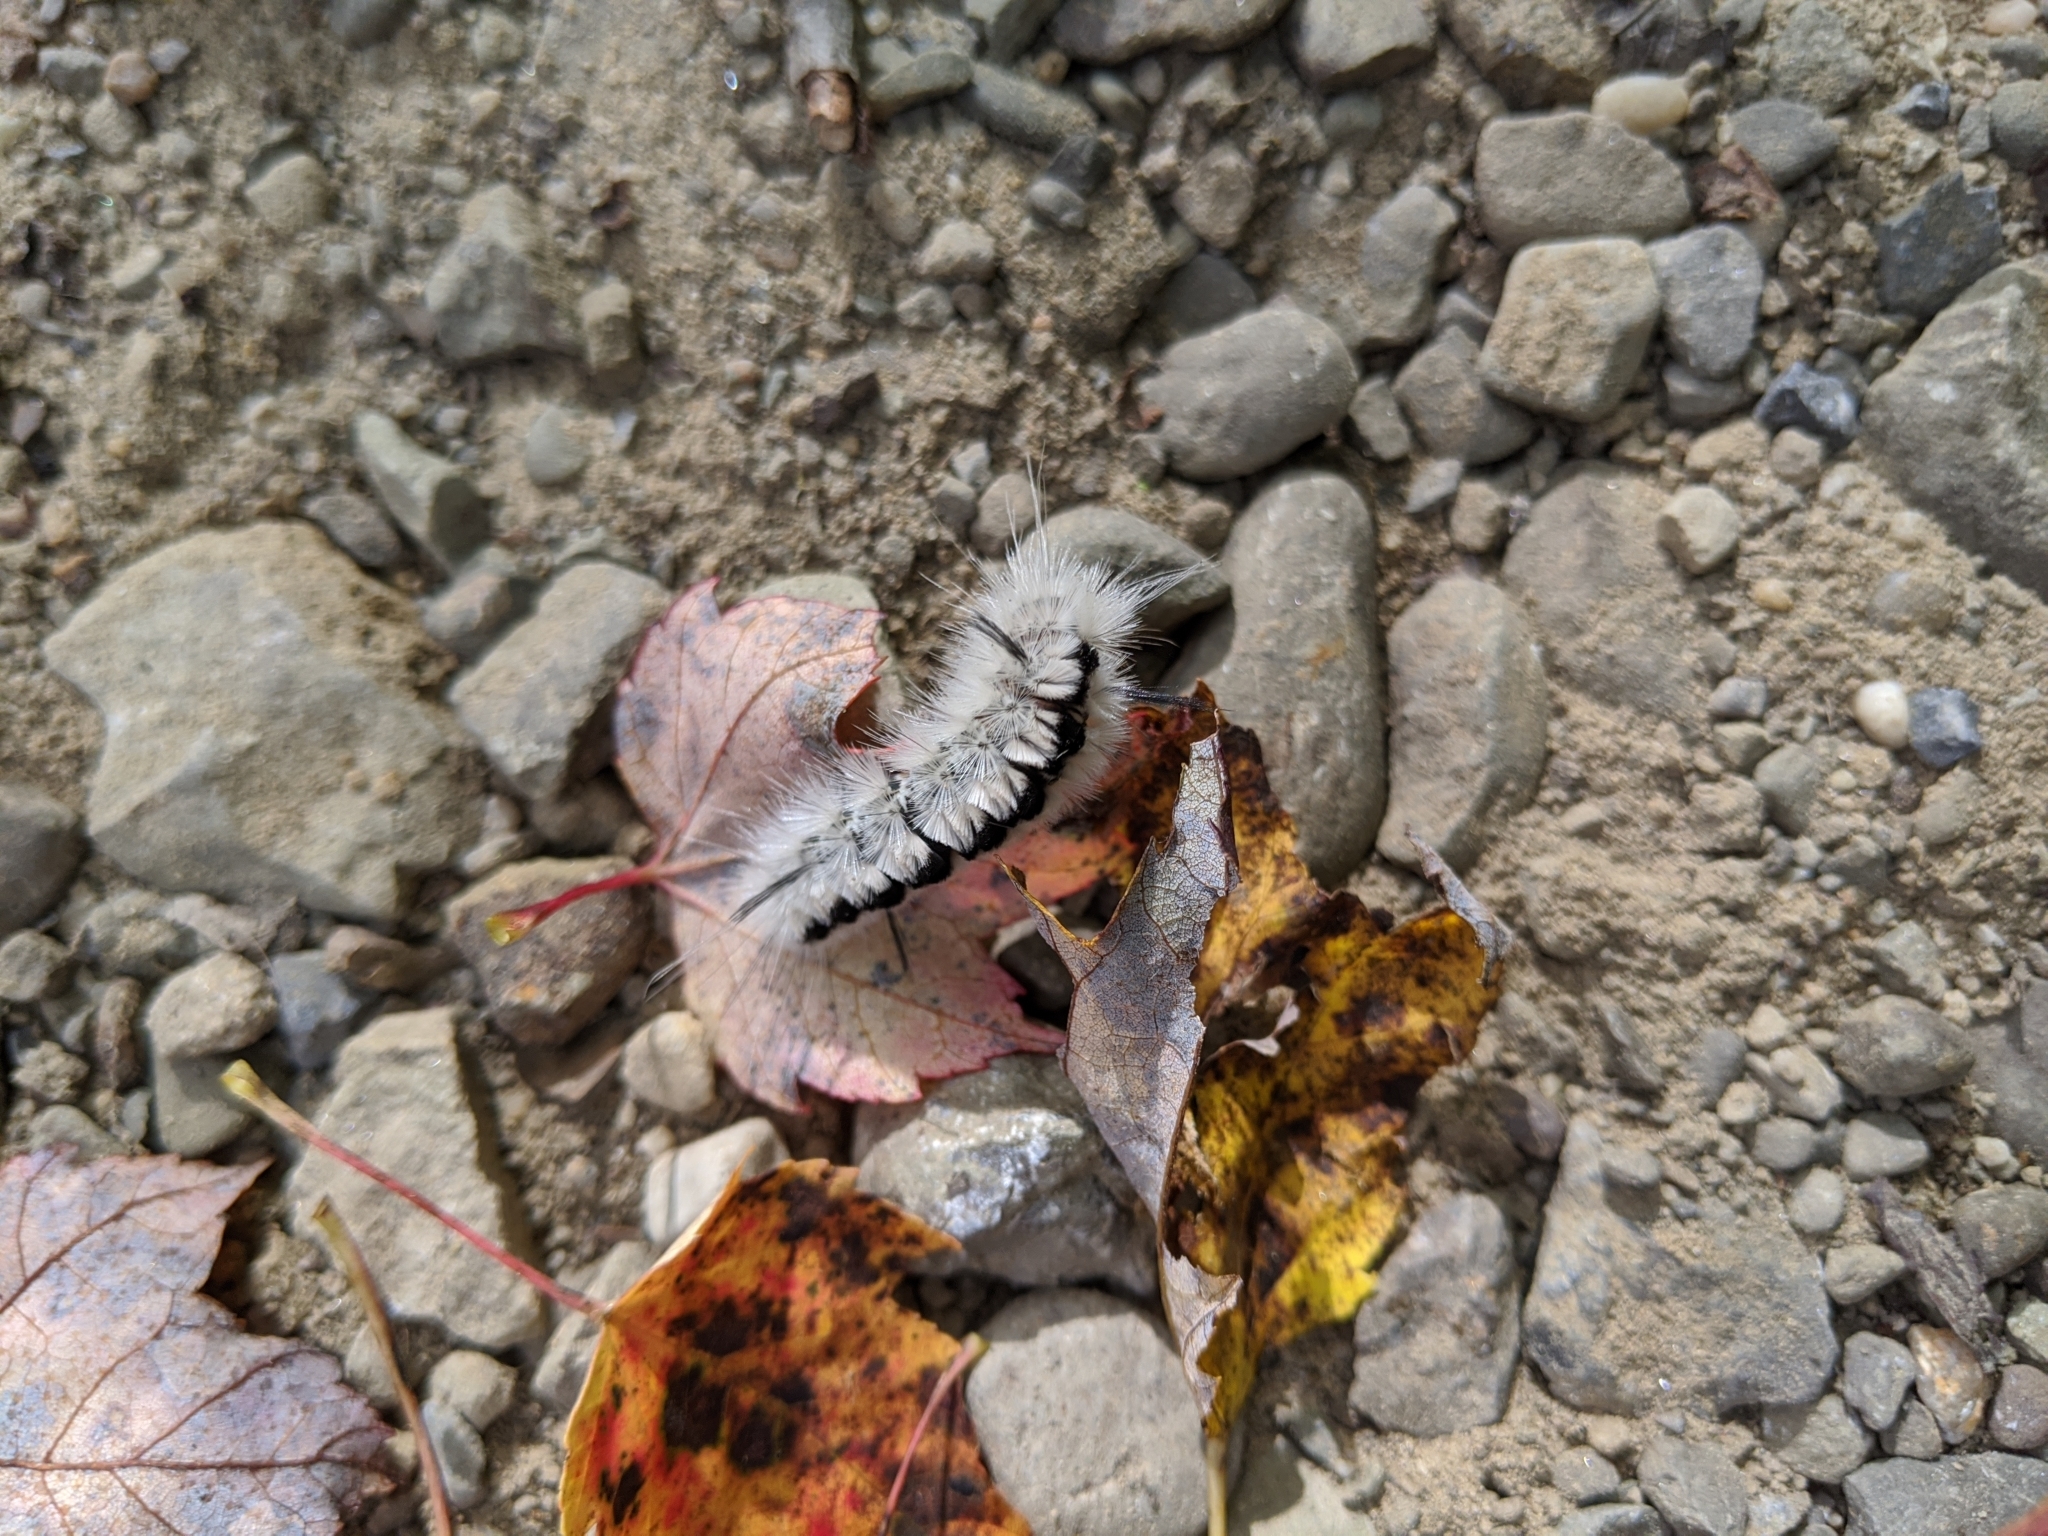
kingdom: Animalia
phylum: Arthropoda
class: Insecta
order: Lepidoptera
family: Erebidae
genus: Lophocampa
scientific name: Lophocampa caryae
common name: Hickory tussock moth
